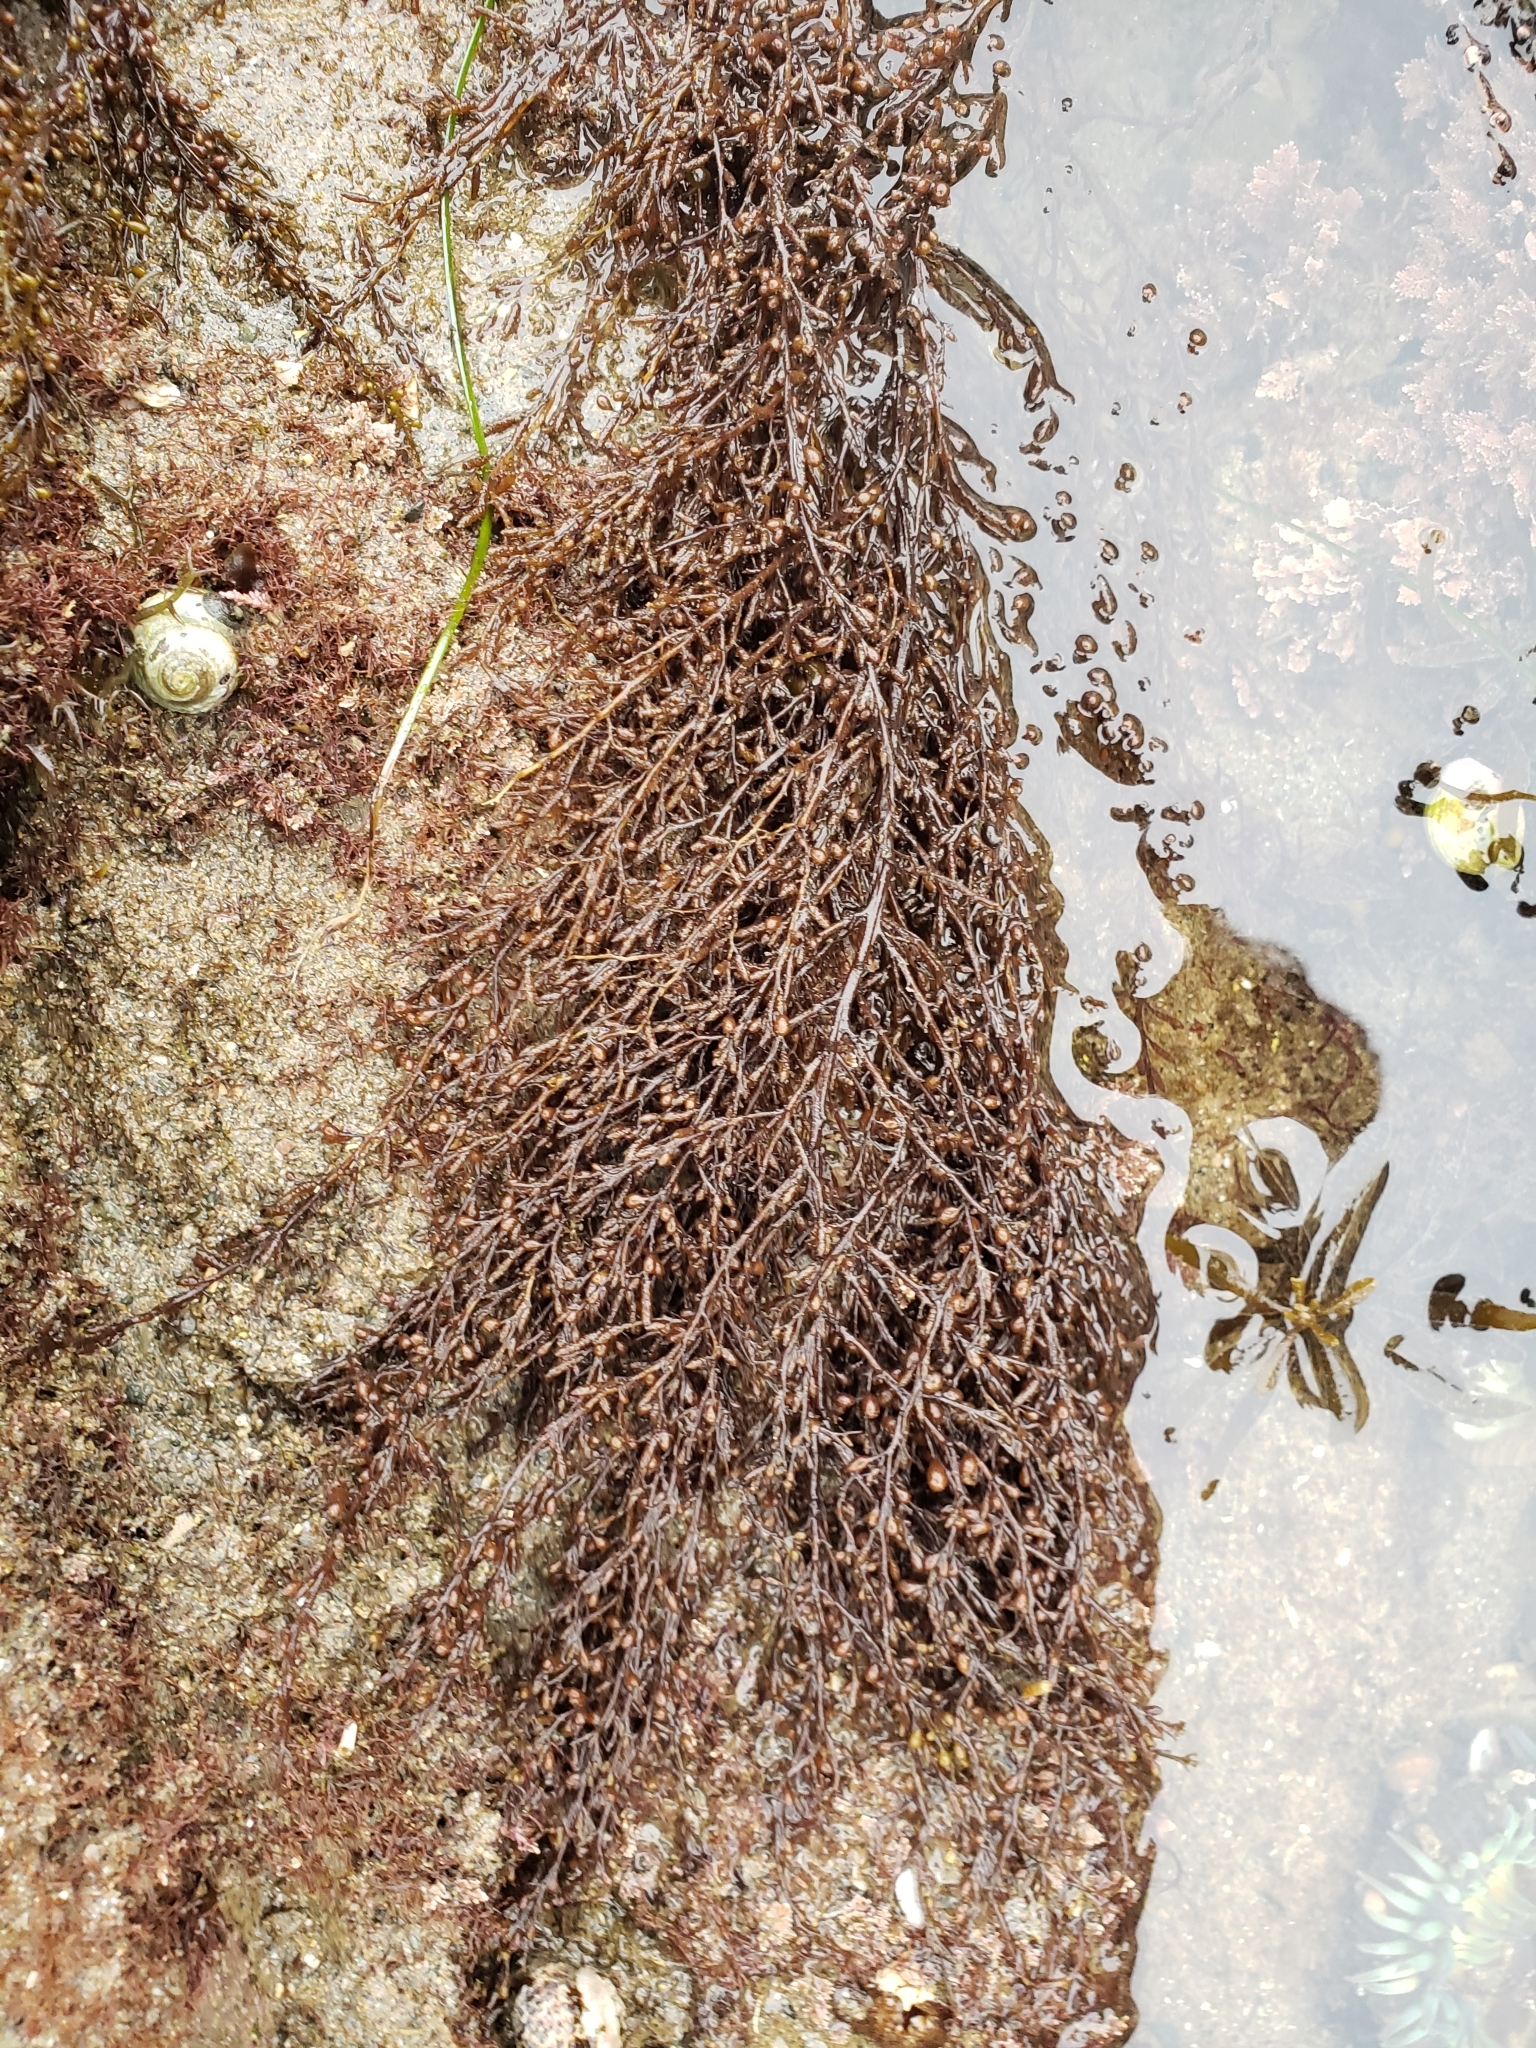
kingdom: Chromista
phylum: Ochrophyta
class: Phaeophyceae
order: Fucales
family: Sargassaceae
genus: Sargassum
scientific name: Sargassum muticum
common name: Japweed
